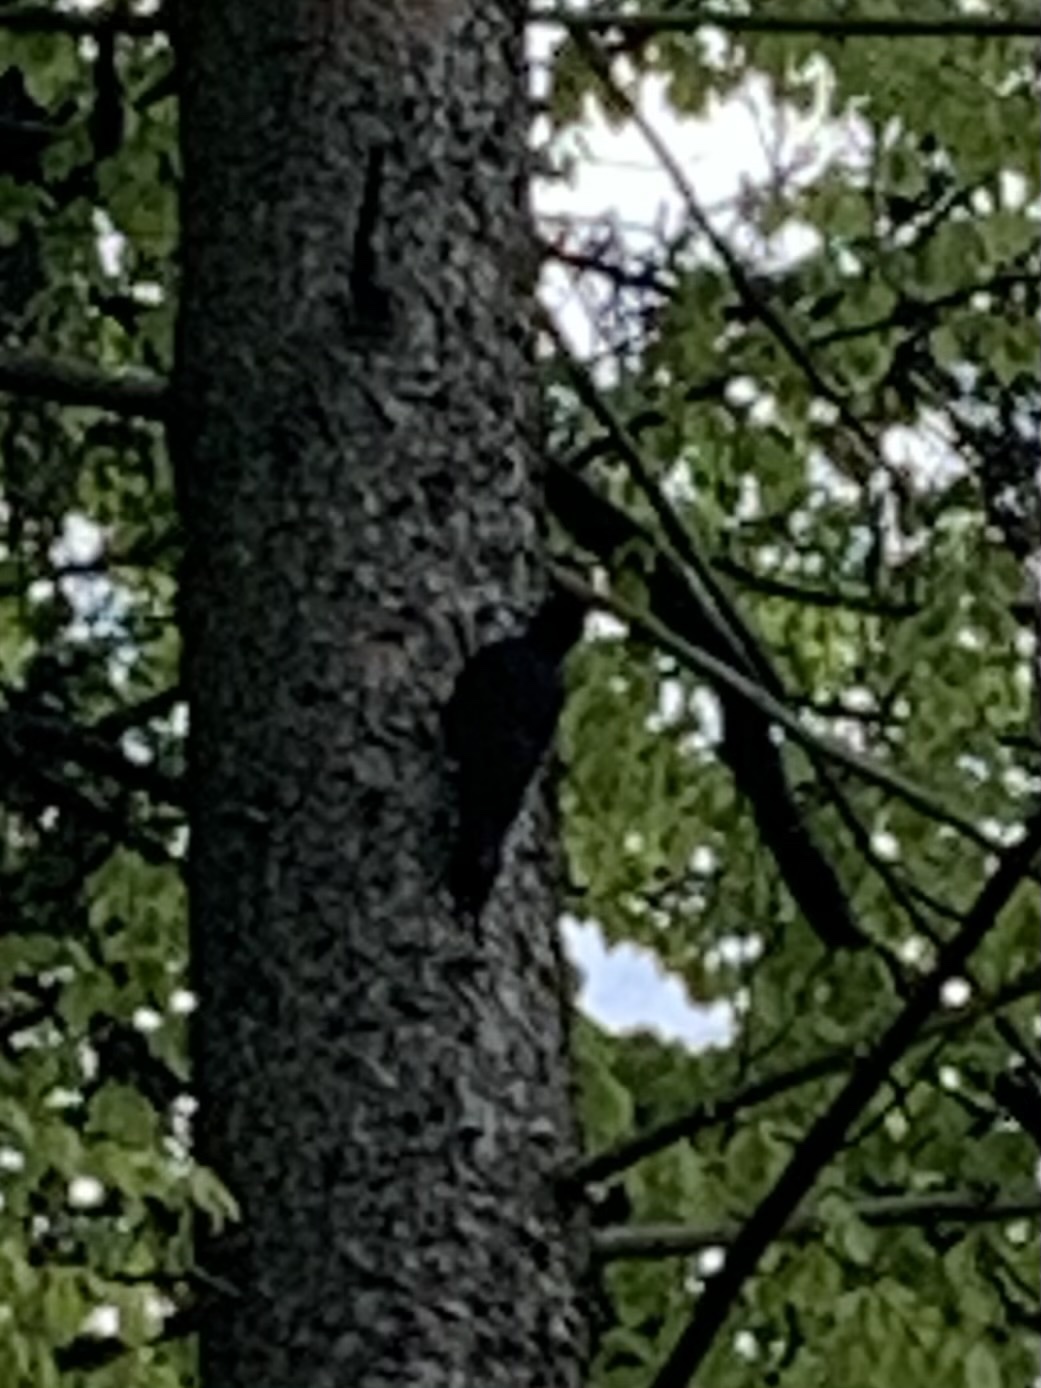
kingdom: Animalia
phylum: Chordata
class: Aves
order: Piciformes
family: Picidae
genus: Dryocopus
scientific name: Dryocopus martius
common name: Black woodpecker
